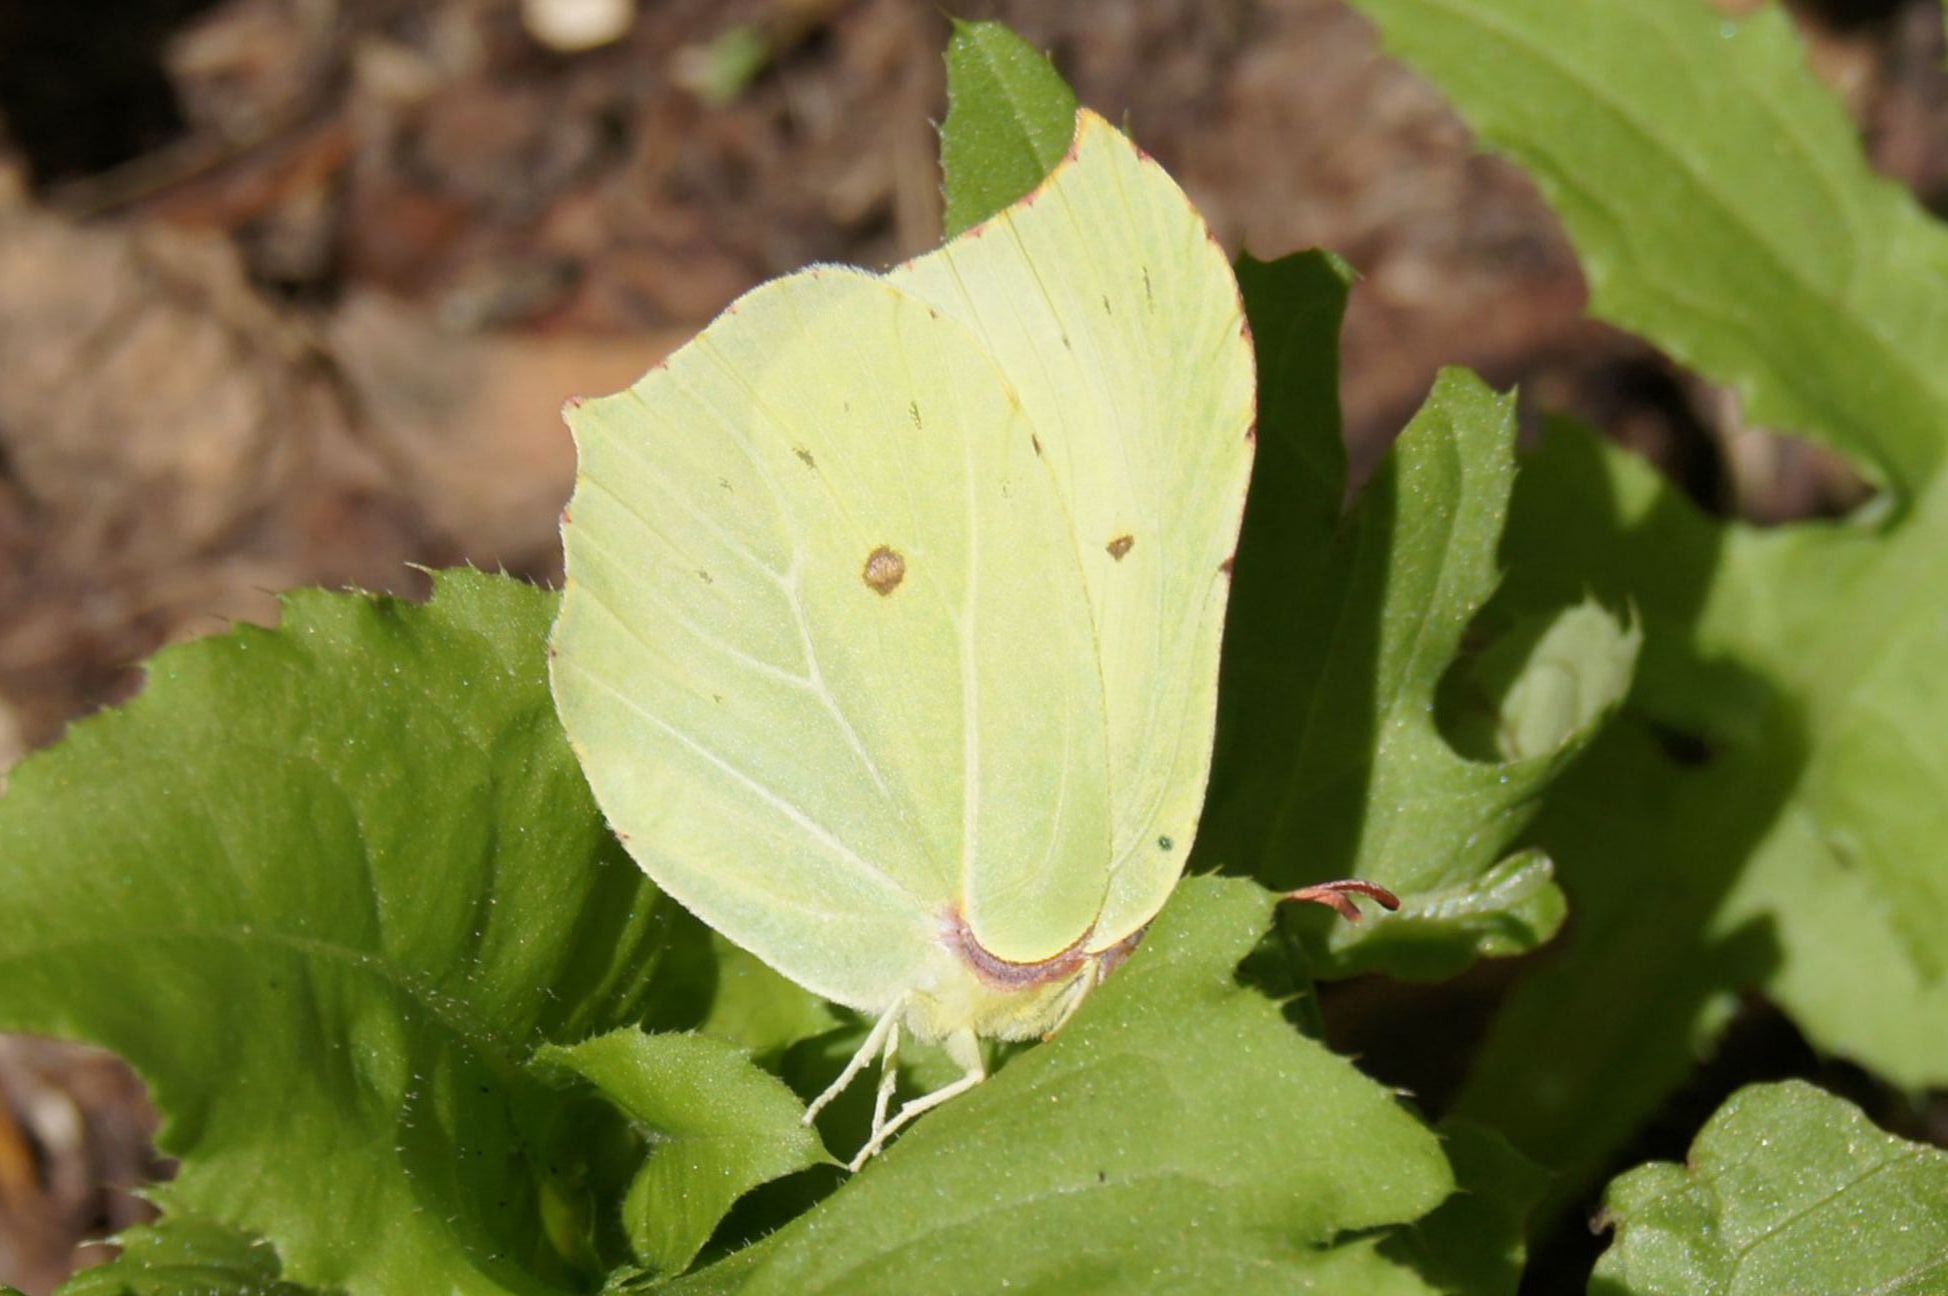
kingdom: Animalia
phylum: Arthropoda
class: Insecta
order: Lepidoptera
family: Pieridae
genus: Gonepteryx
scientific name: Gonepteryx rhamni
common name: Brimstone
